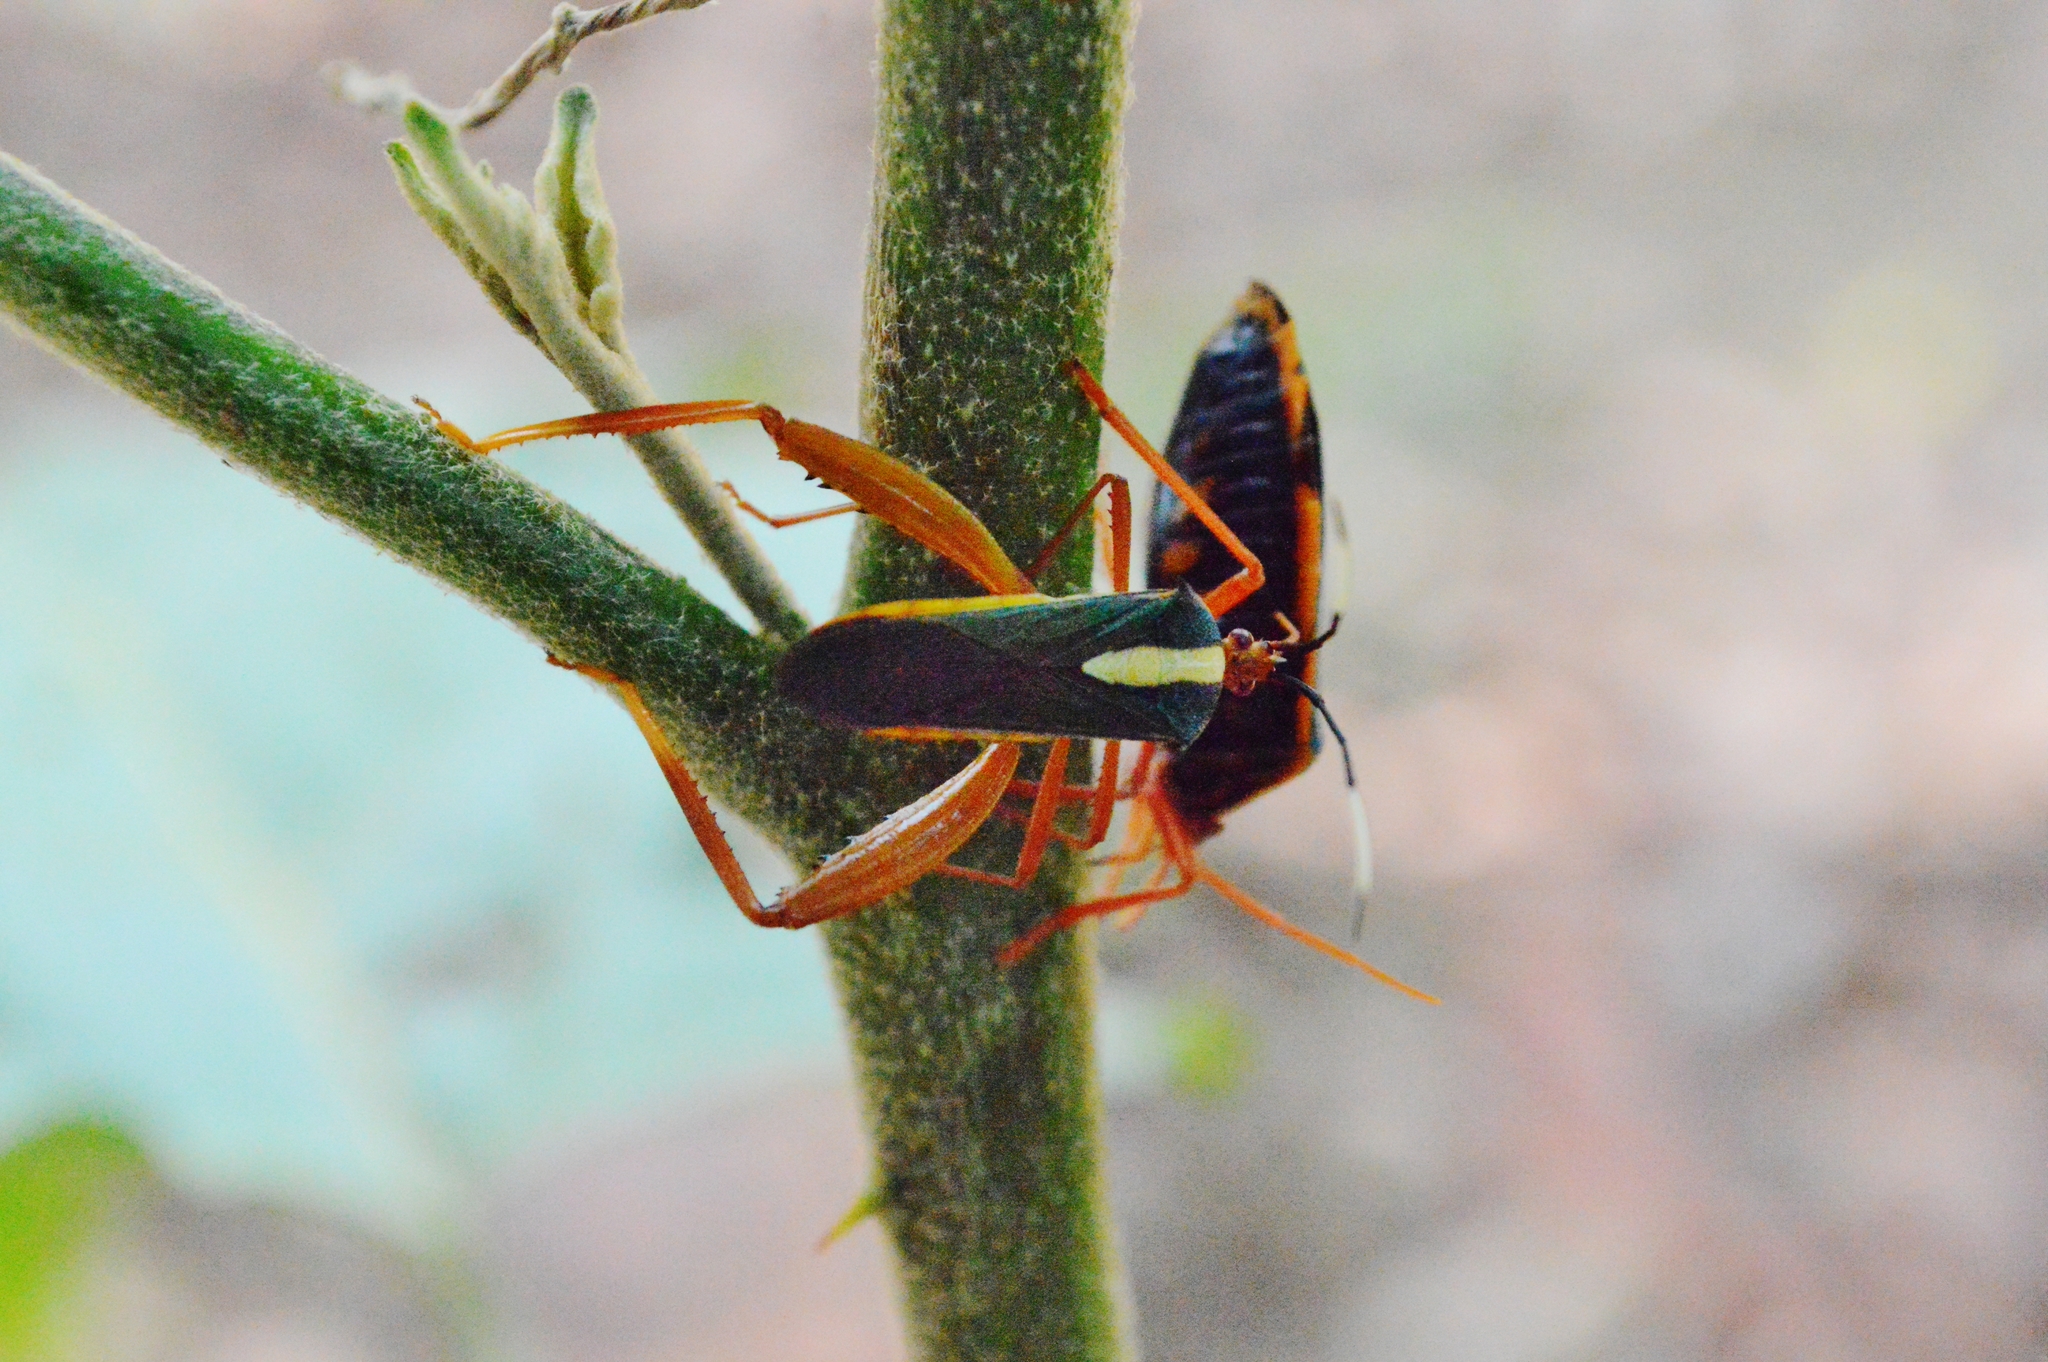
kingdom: Animalia
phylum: Arthropoda
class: Insecta
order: Hemiptera
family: Coreidae
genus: Lucullia
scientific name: Lucullia flavovittata
